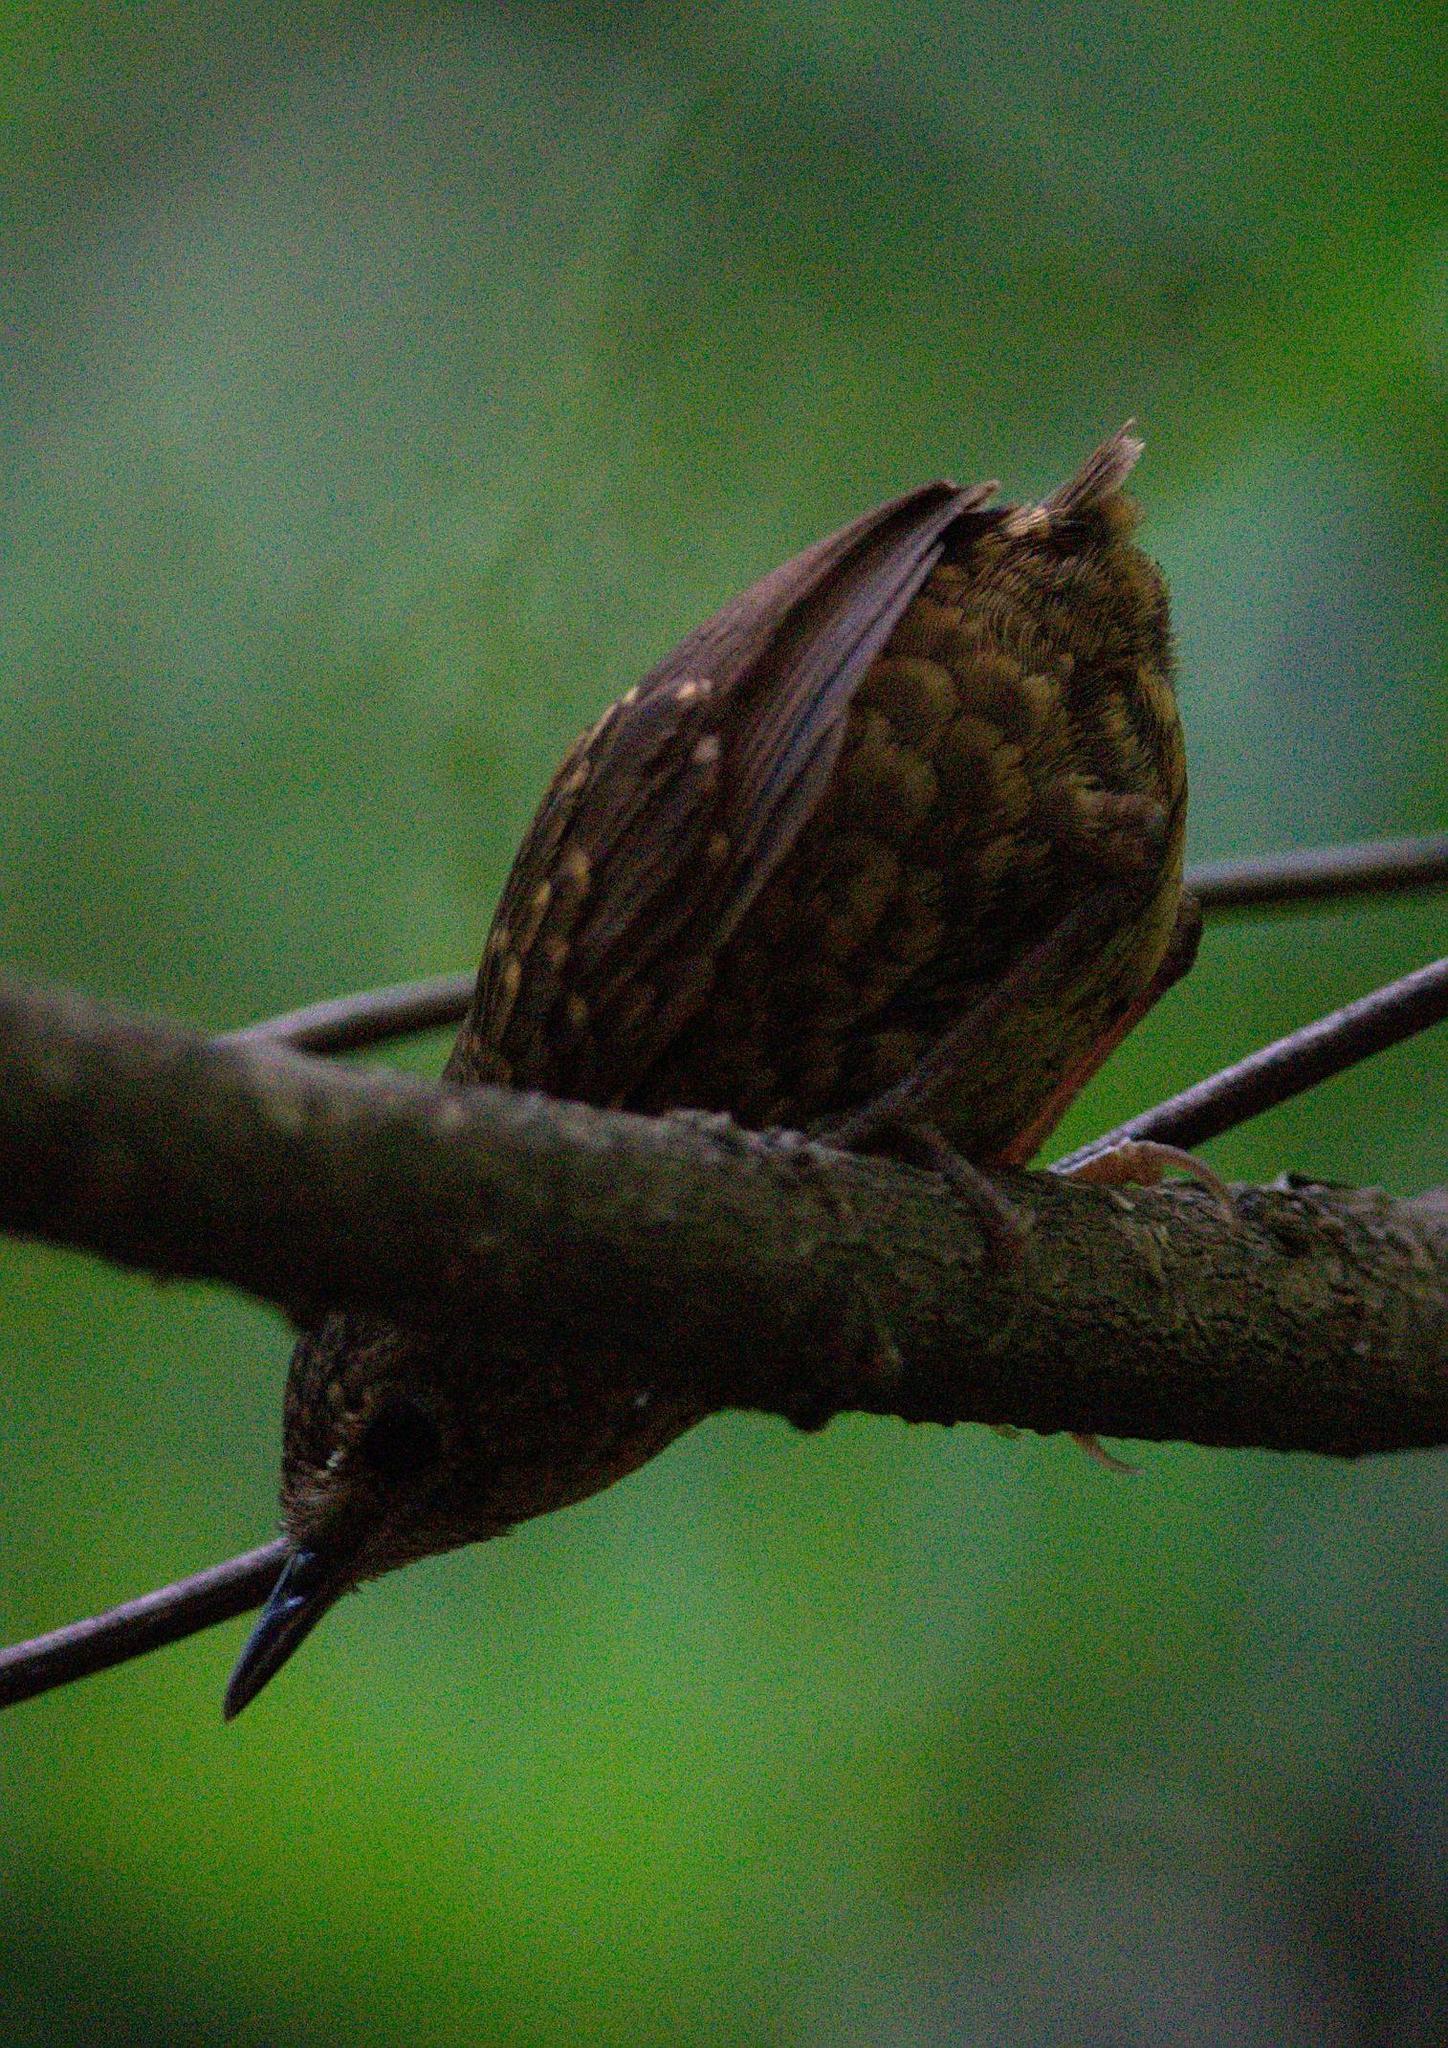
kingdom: Animalia
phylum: Chordata
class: Aves
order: Passeriformes
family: Pnoepygidae
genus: Pnoepyga
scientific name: Pnoepyga pusilla
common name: Pygmy wren-babbler
